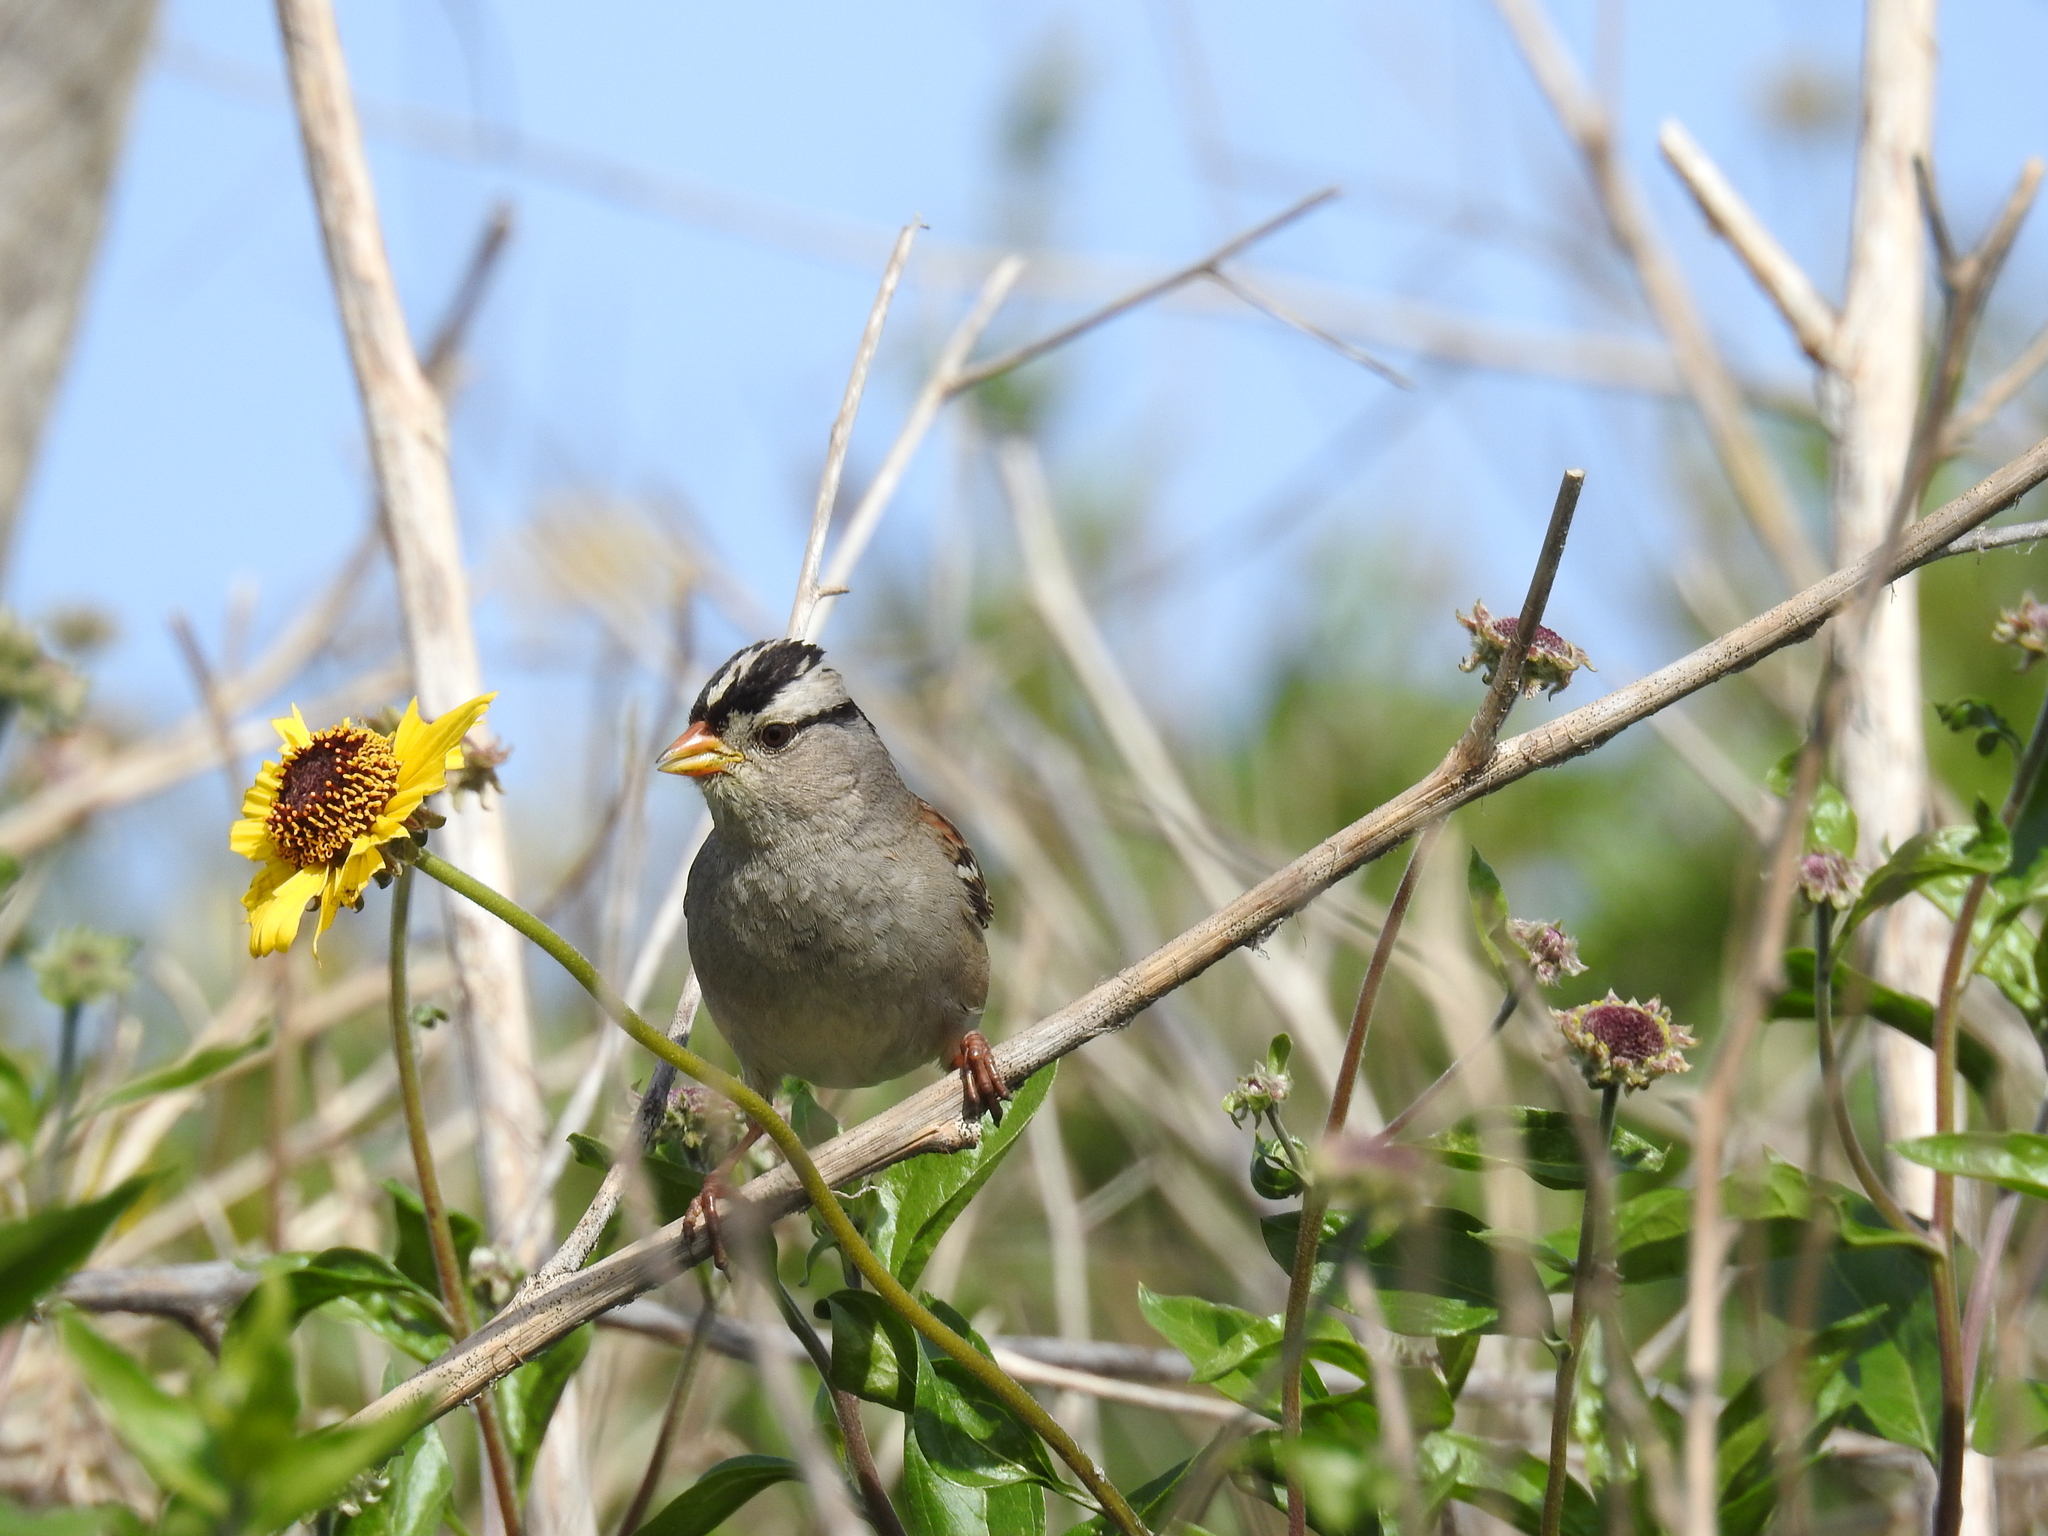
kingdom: Animalia
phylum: Chordata
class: Aves
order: Passeriformes
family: Passerellidae
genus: Zonotrichia
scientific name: Zonotrichia leucophrys
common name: White-crowned sparrow
